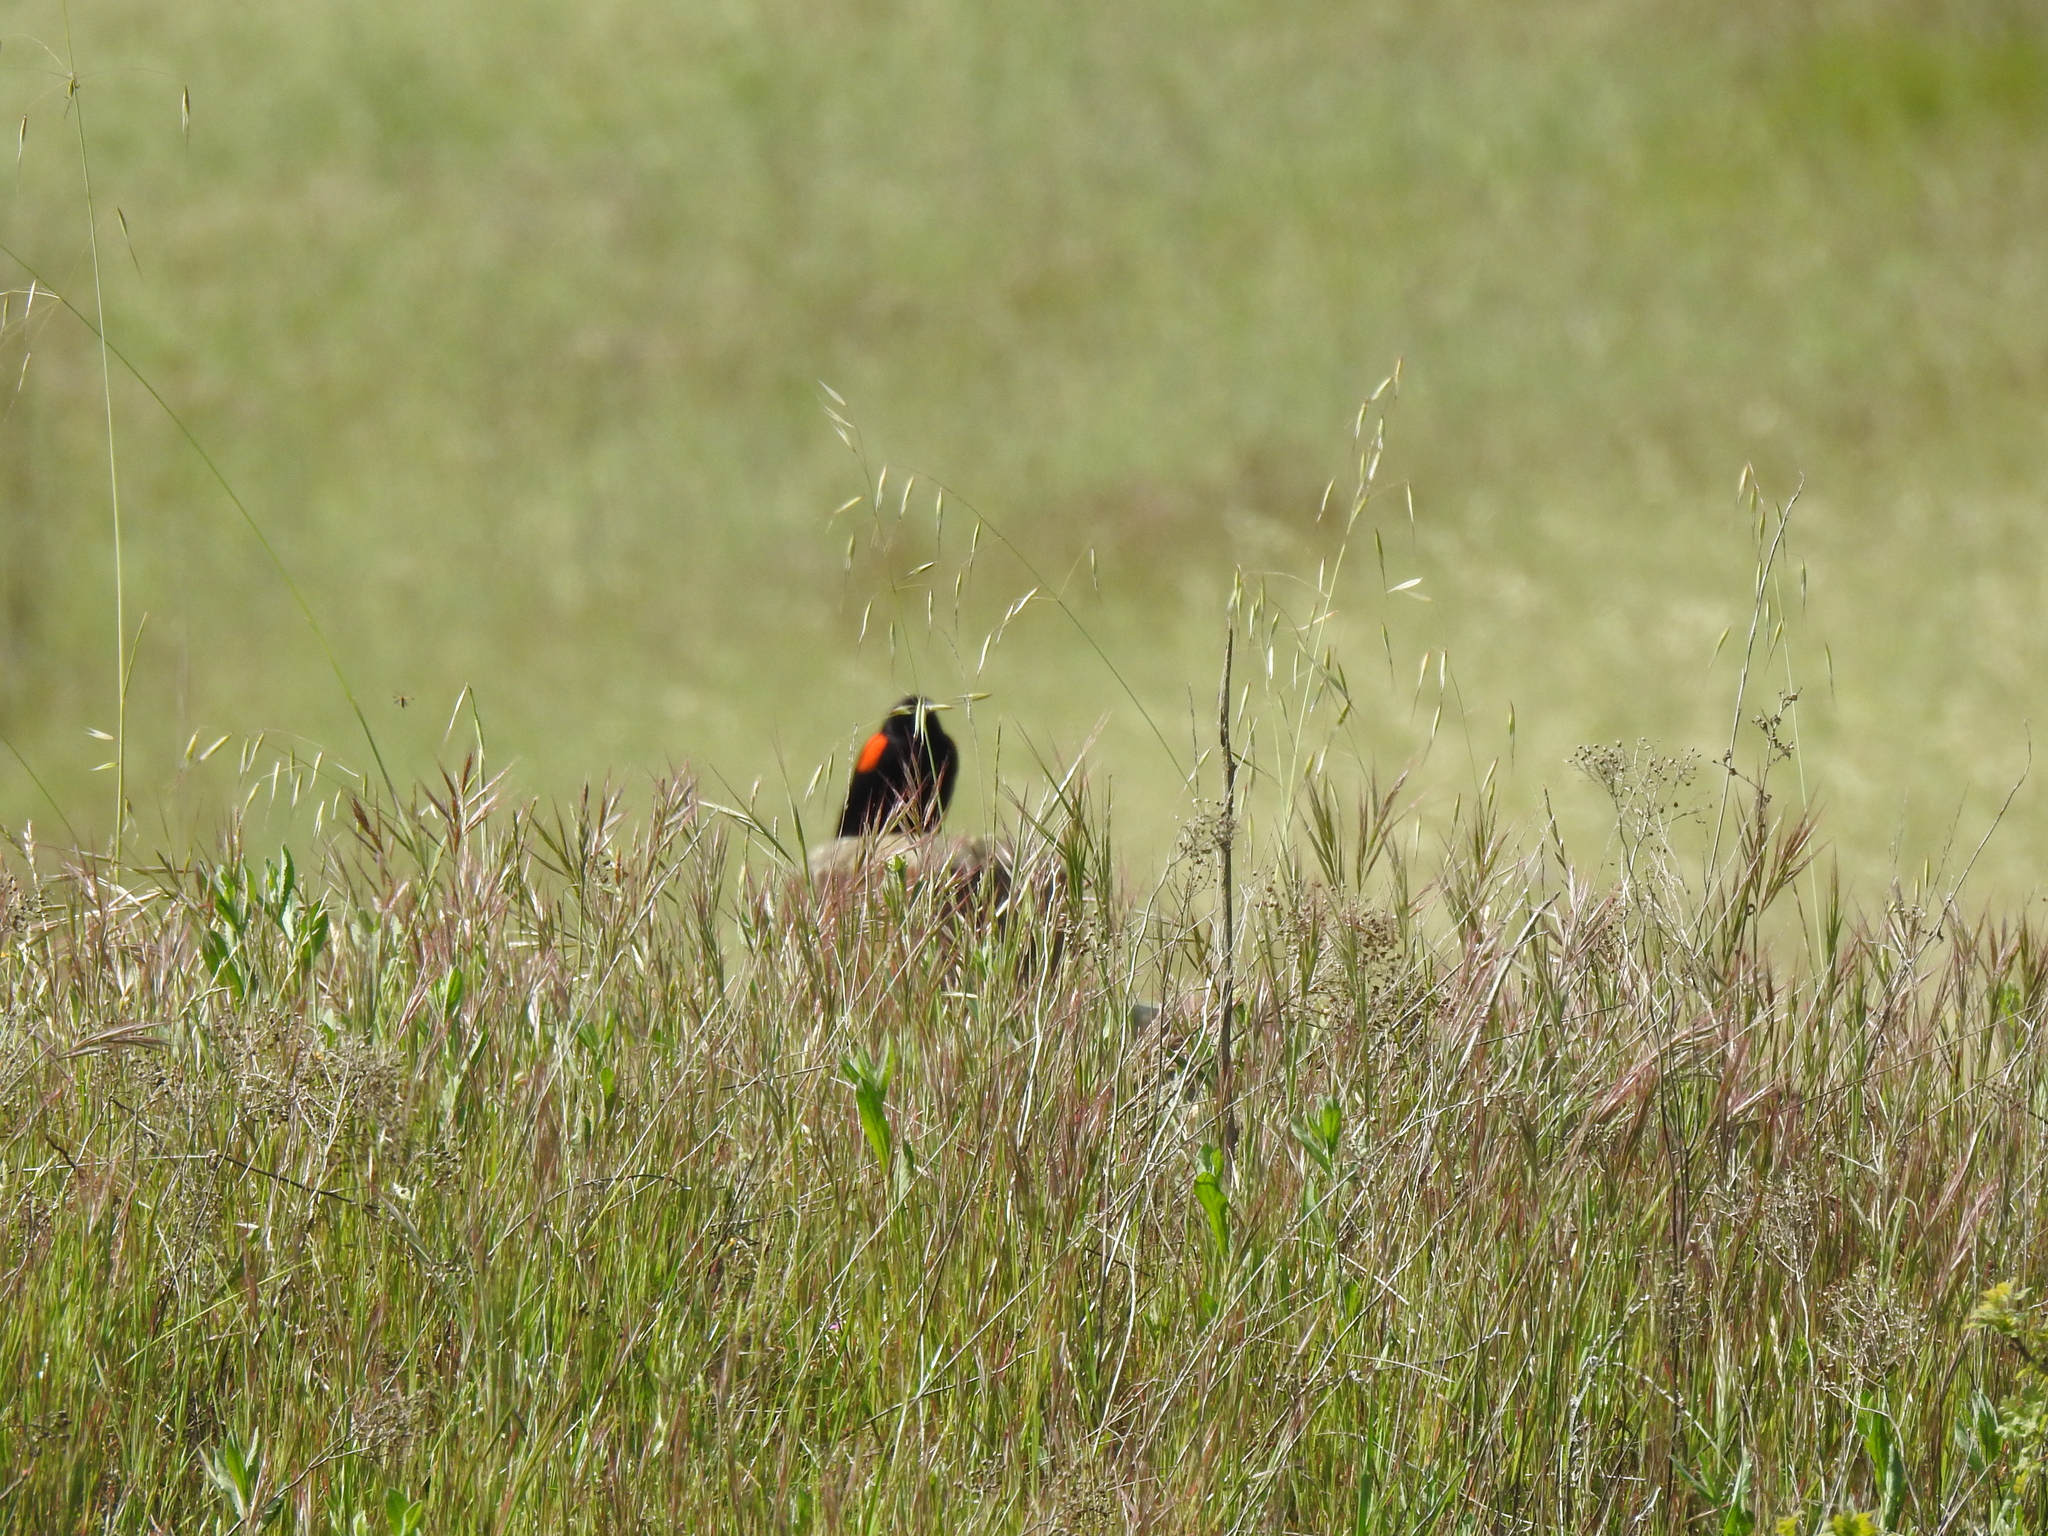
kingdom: Animalia
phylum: Chordata
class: Aves
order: Passeriformes
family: Icteridae
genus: Agelaius
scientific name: Agelaius phoeniceus
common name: Red-winged blackbird
